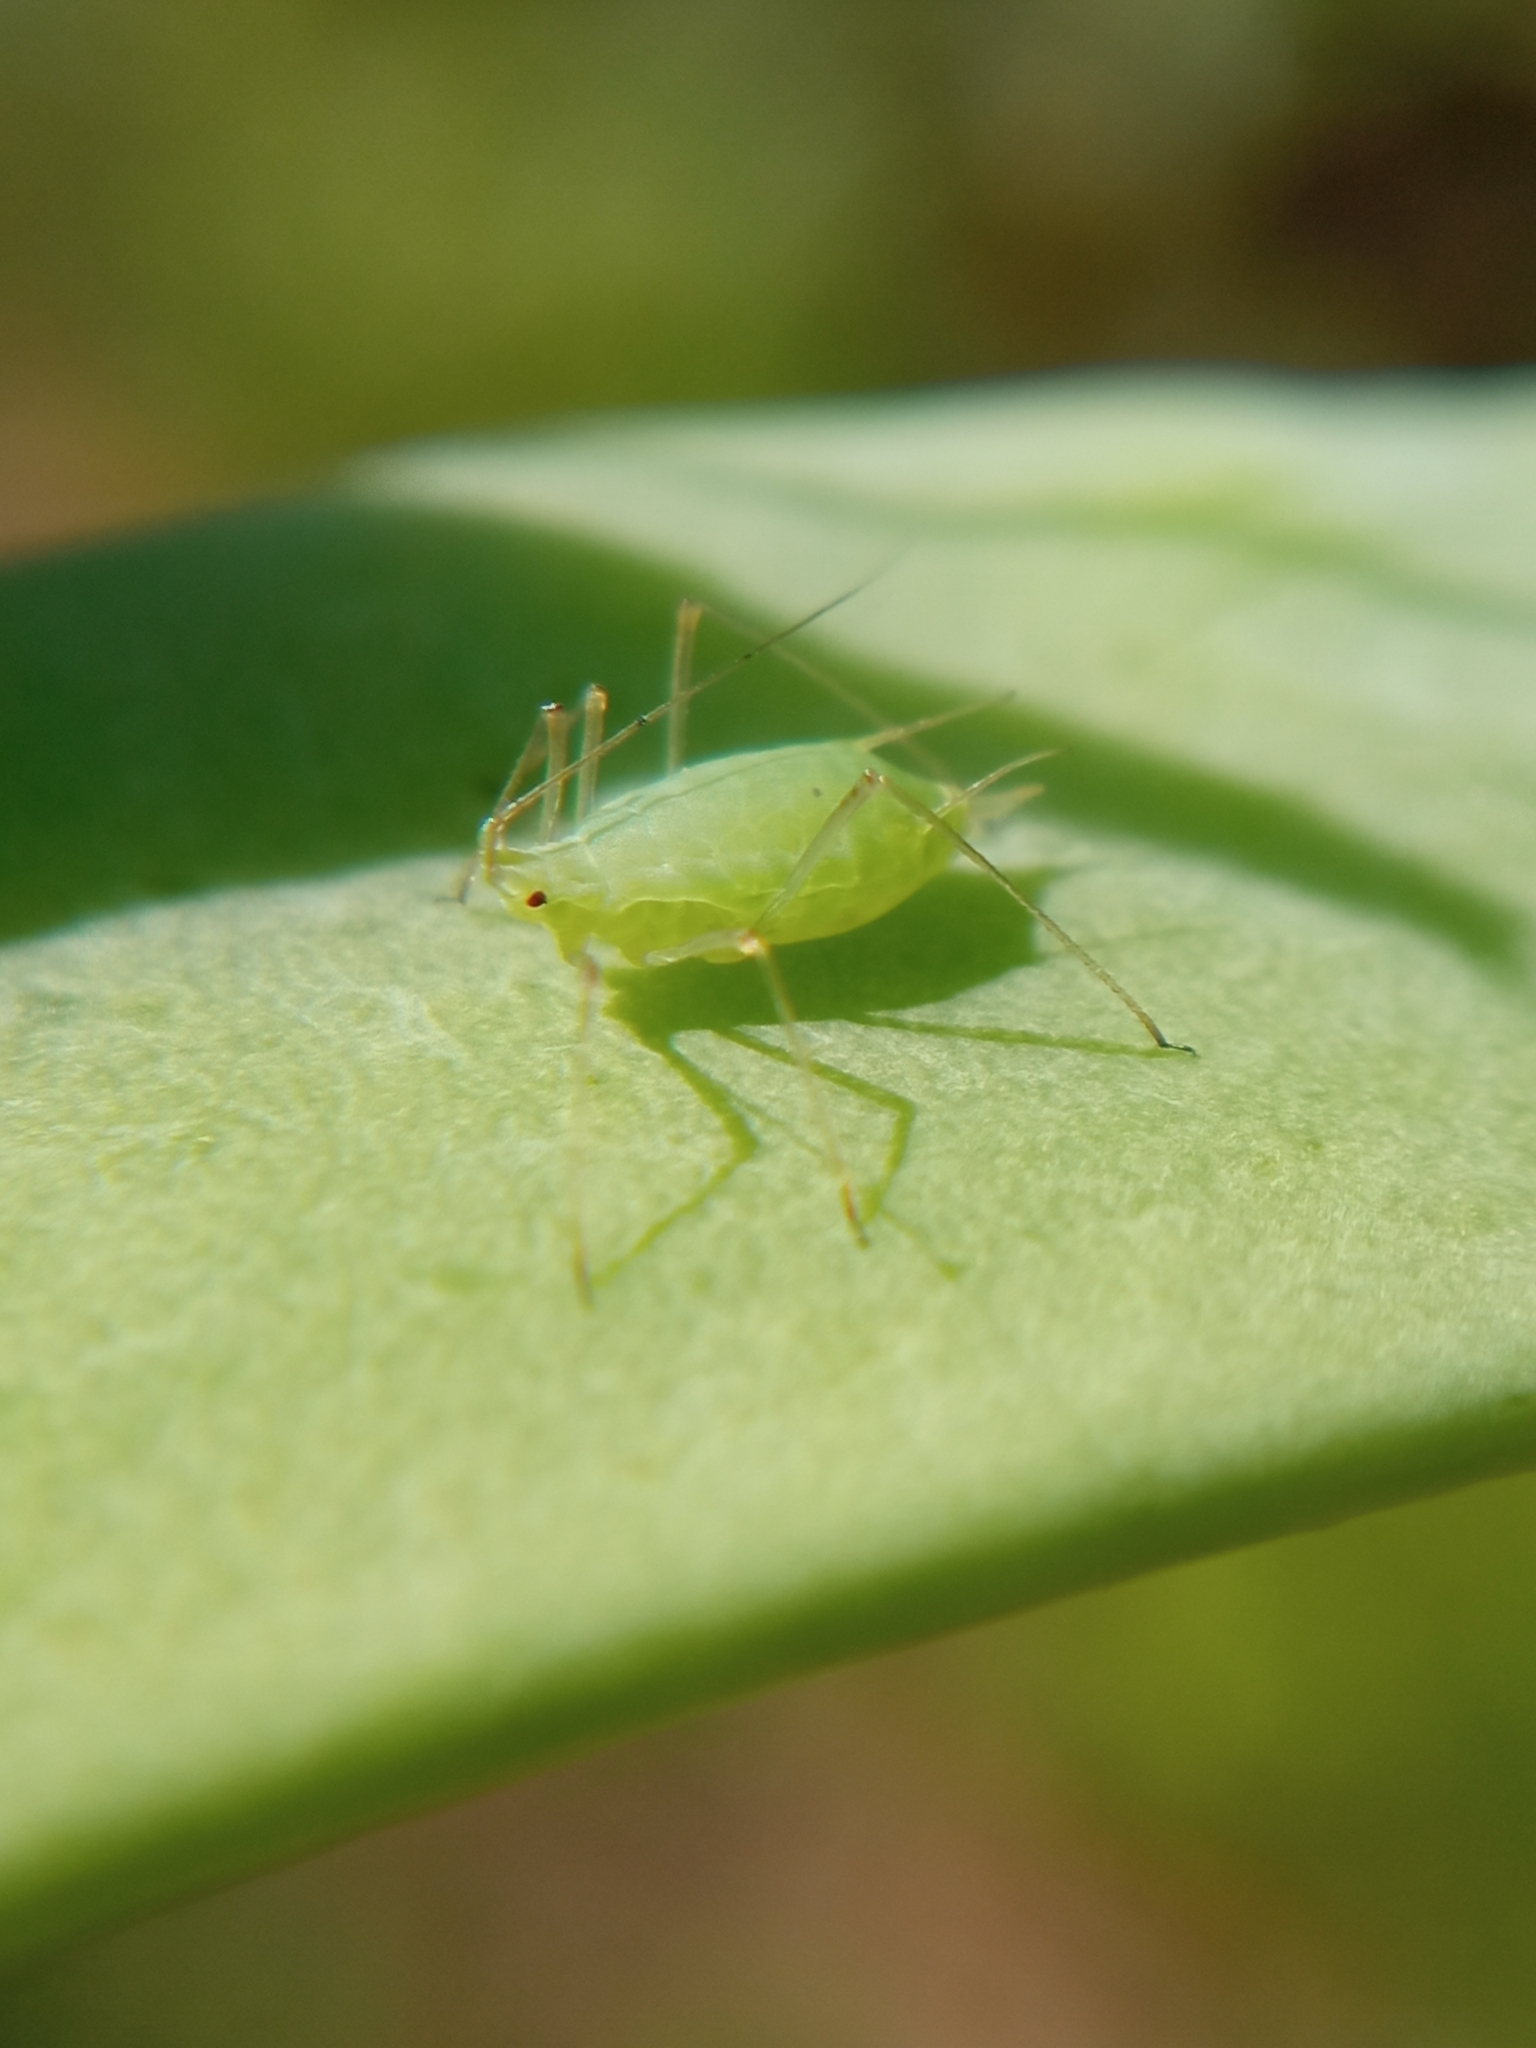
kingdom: Animalia
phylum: Arthropoda
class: Insecta
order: Hemiptera
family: Aphididae
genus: Acyrthosiphon
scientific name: Acyrthosiphon pisum
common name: Pea aphid
